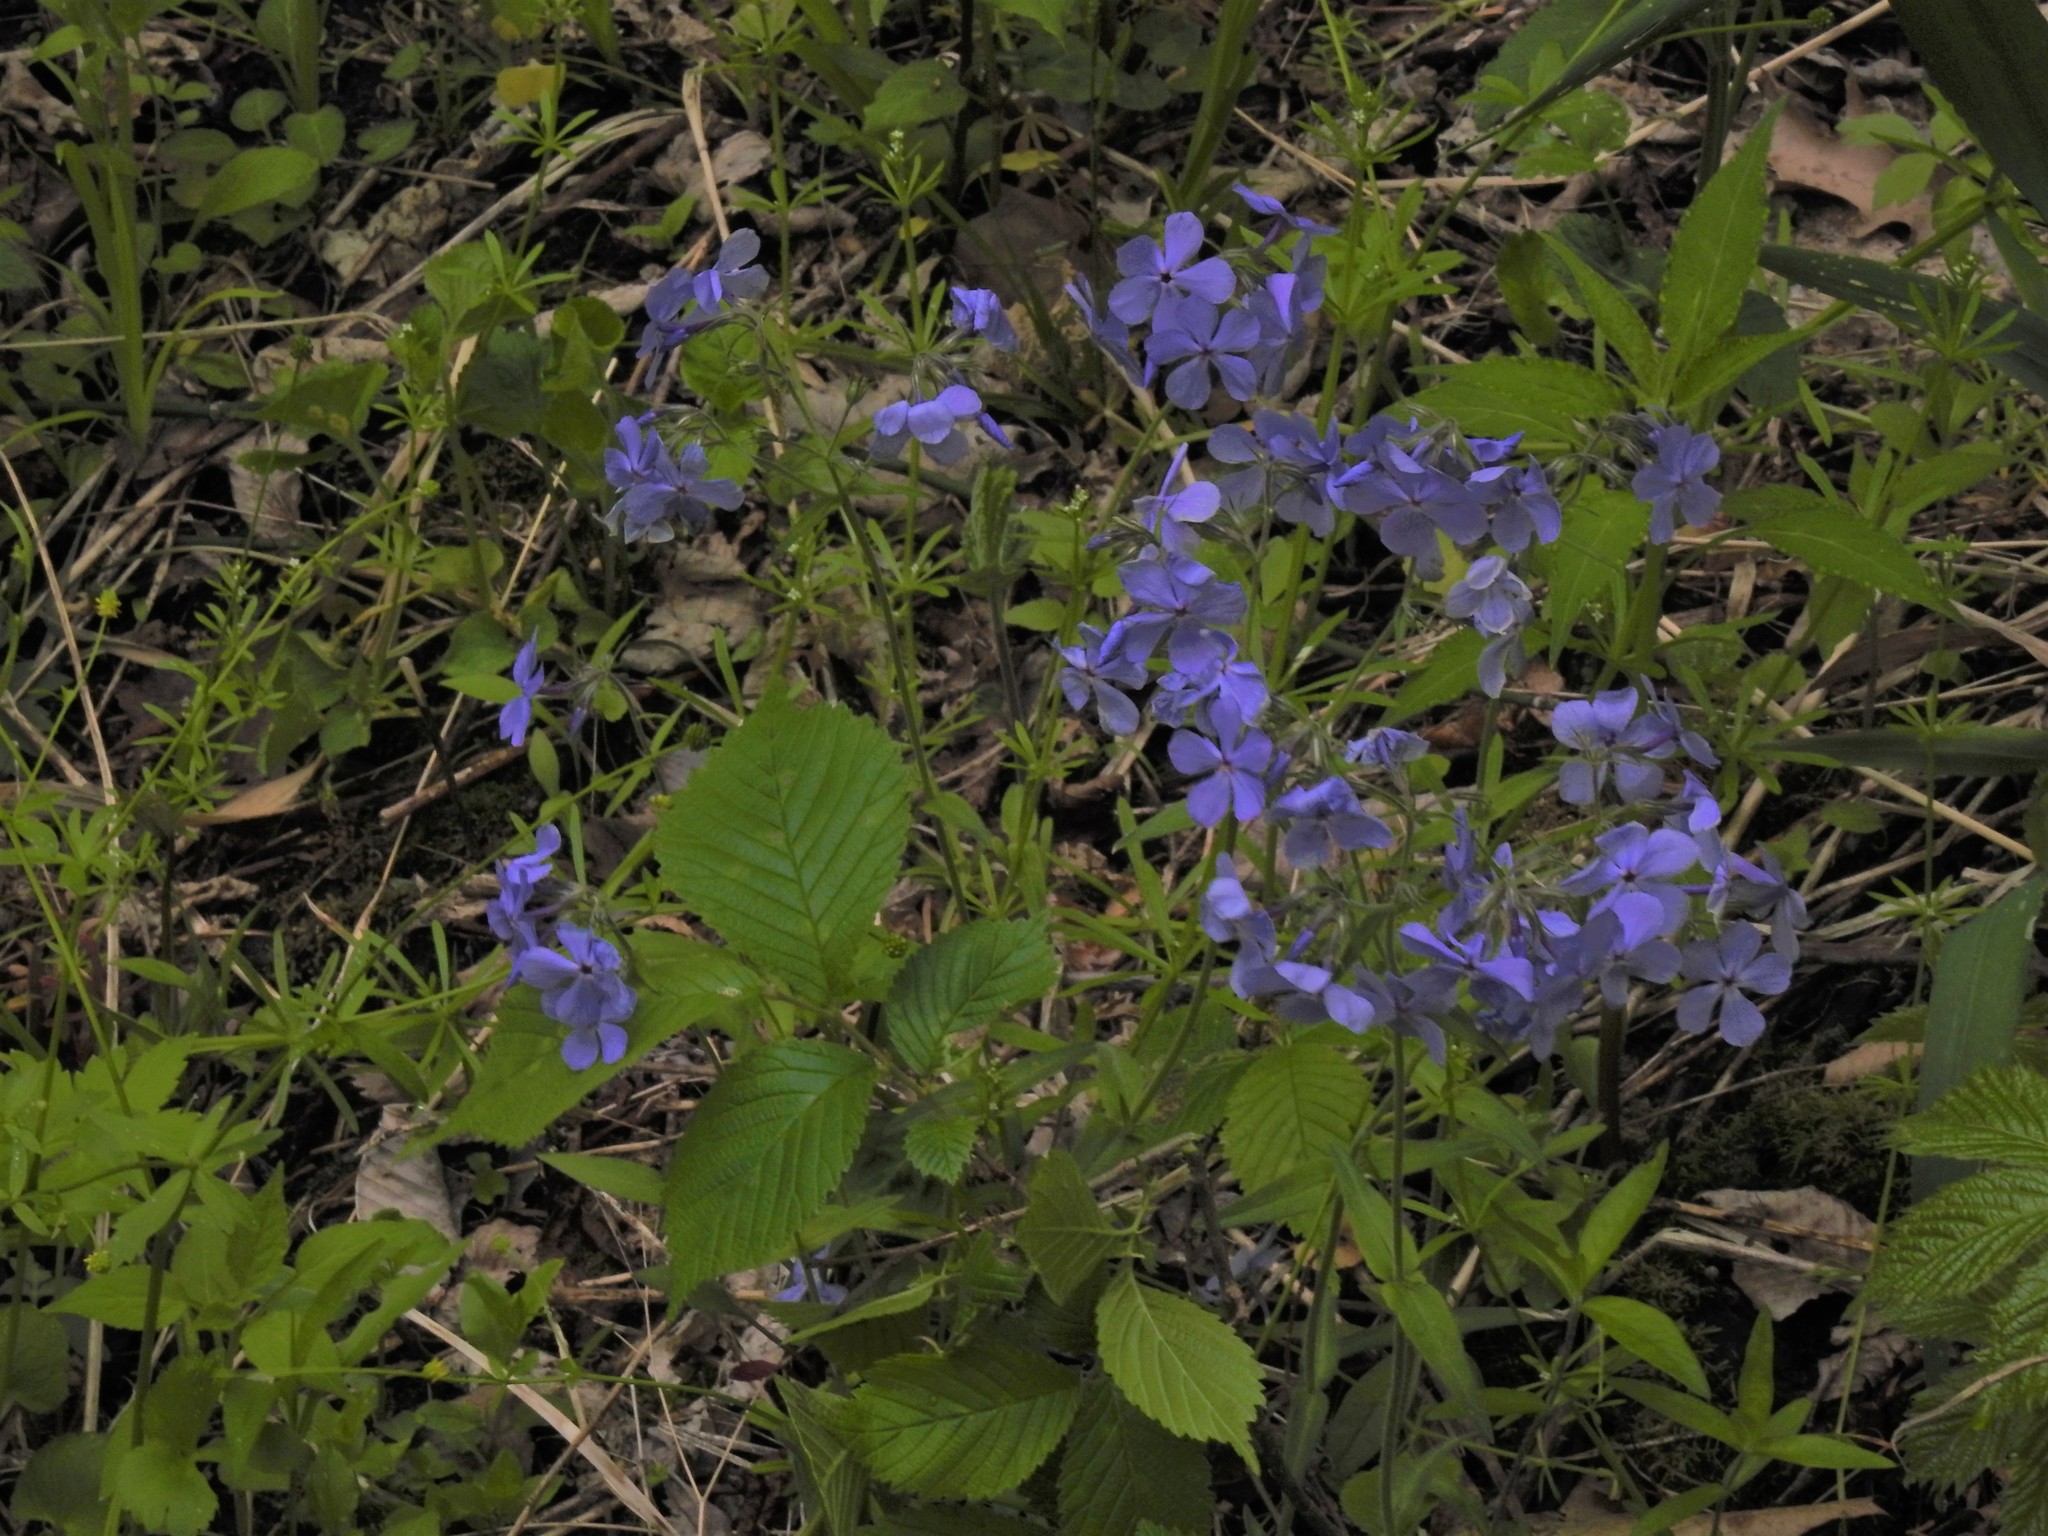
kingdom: Plantae
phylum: Tracheophyta
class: Magnoliopsida
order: Ericales
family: Polemoniaceae
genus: Phlox
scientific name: Phlox divaricata
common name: Blue phlox
